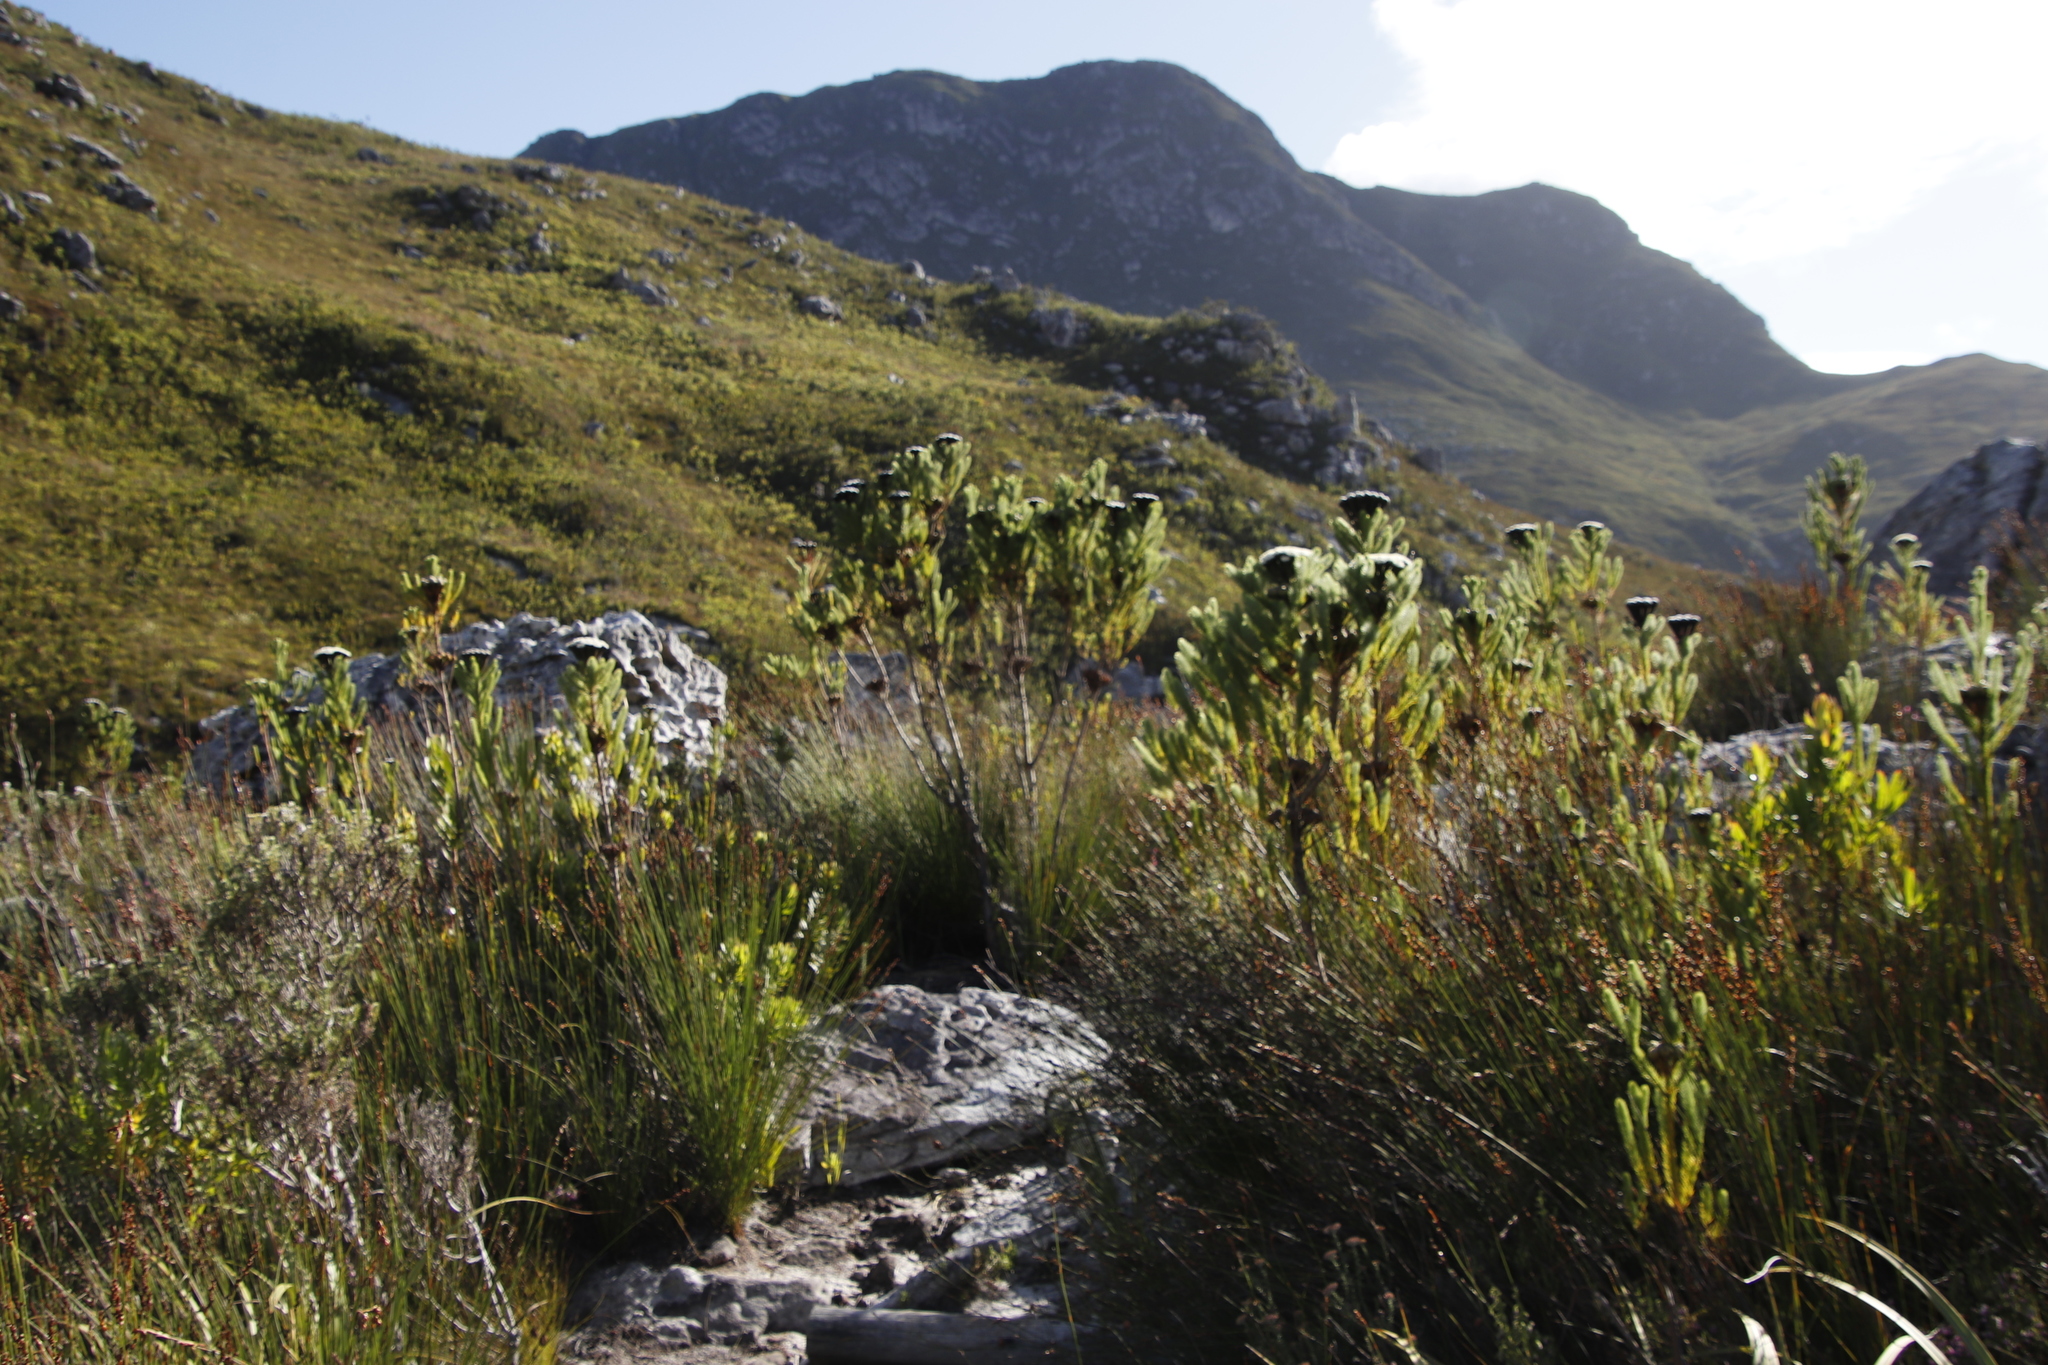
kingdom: Plantae
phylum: Tracheophyta
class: Magnoliopsida
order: Bruniales
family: Bruniaceae
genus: Berzelia
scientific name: Berzelia albiflora
